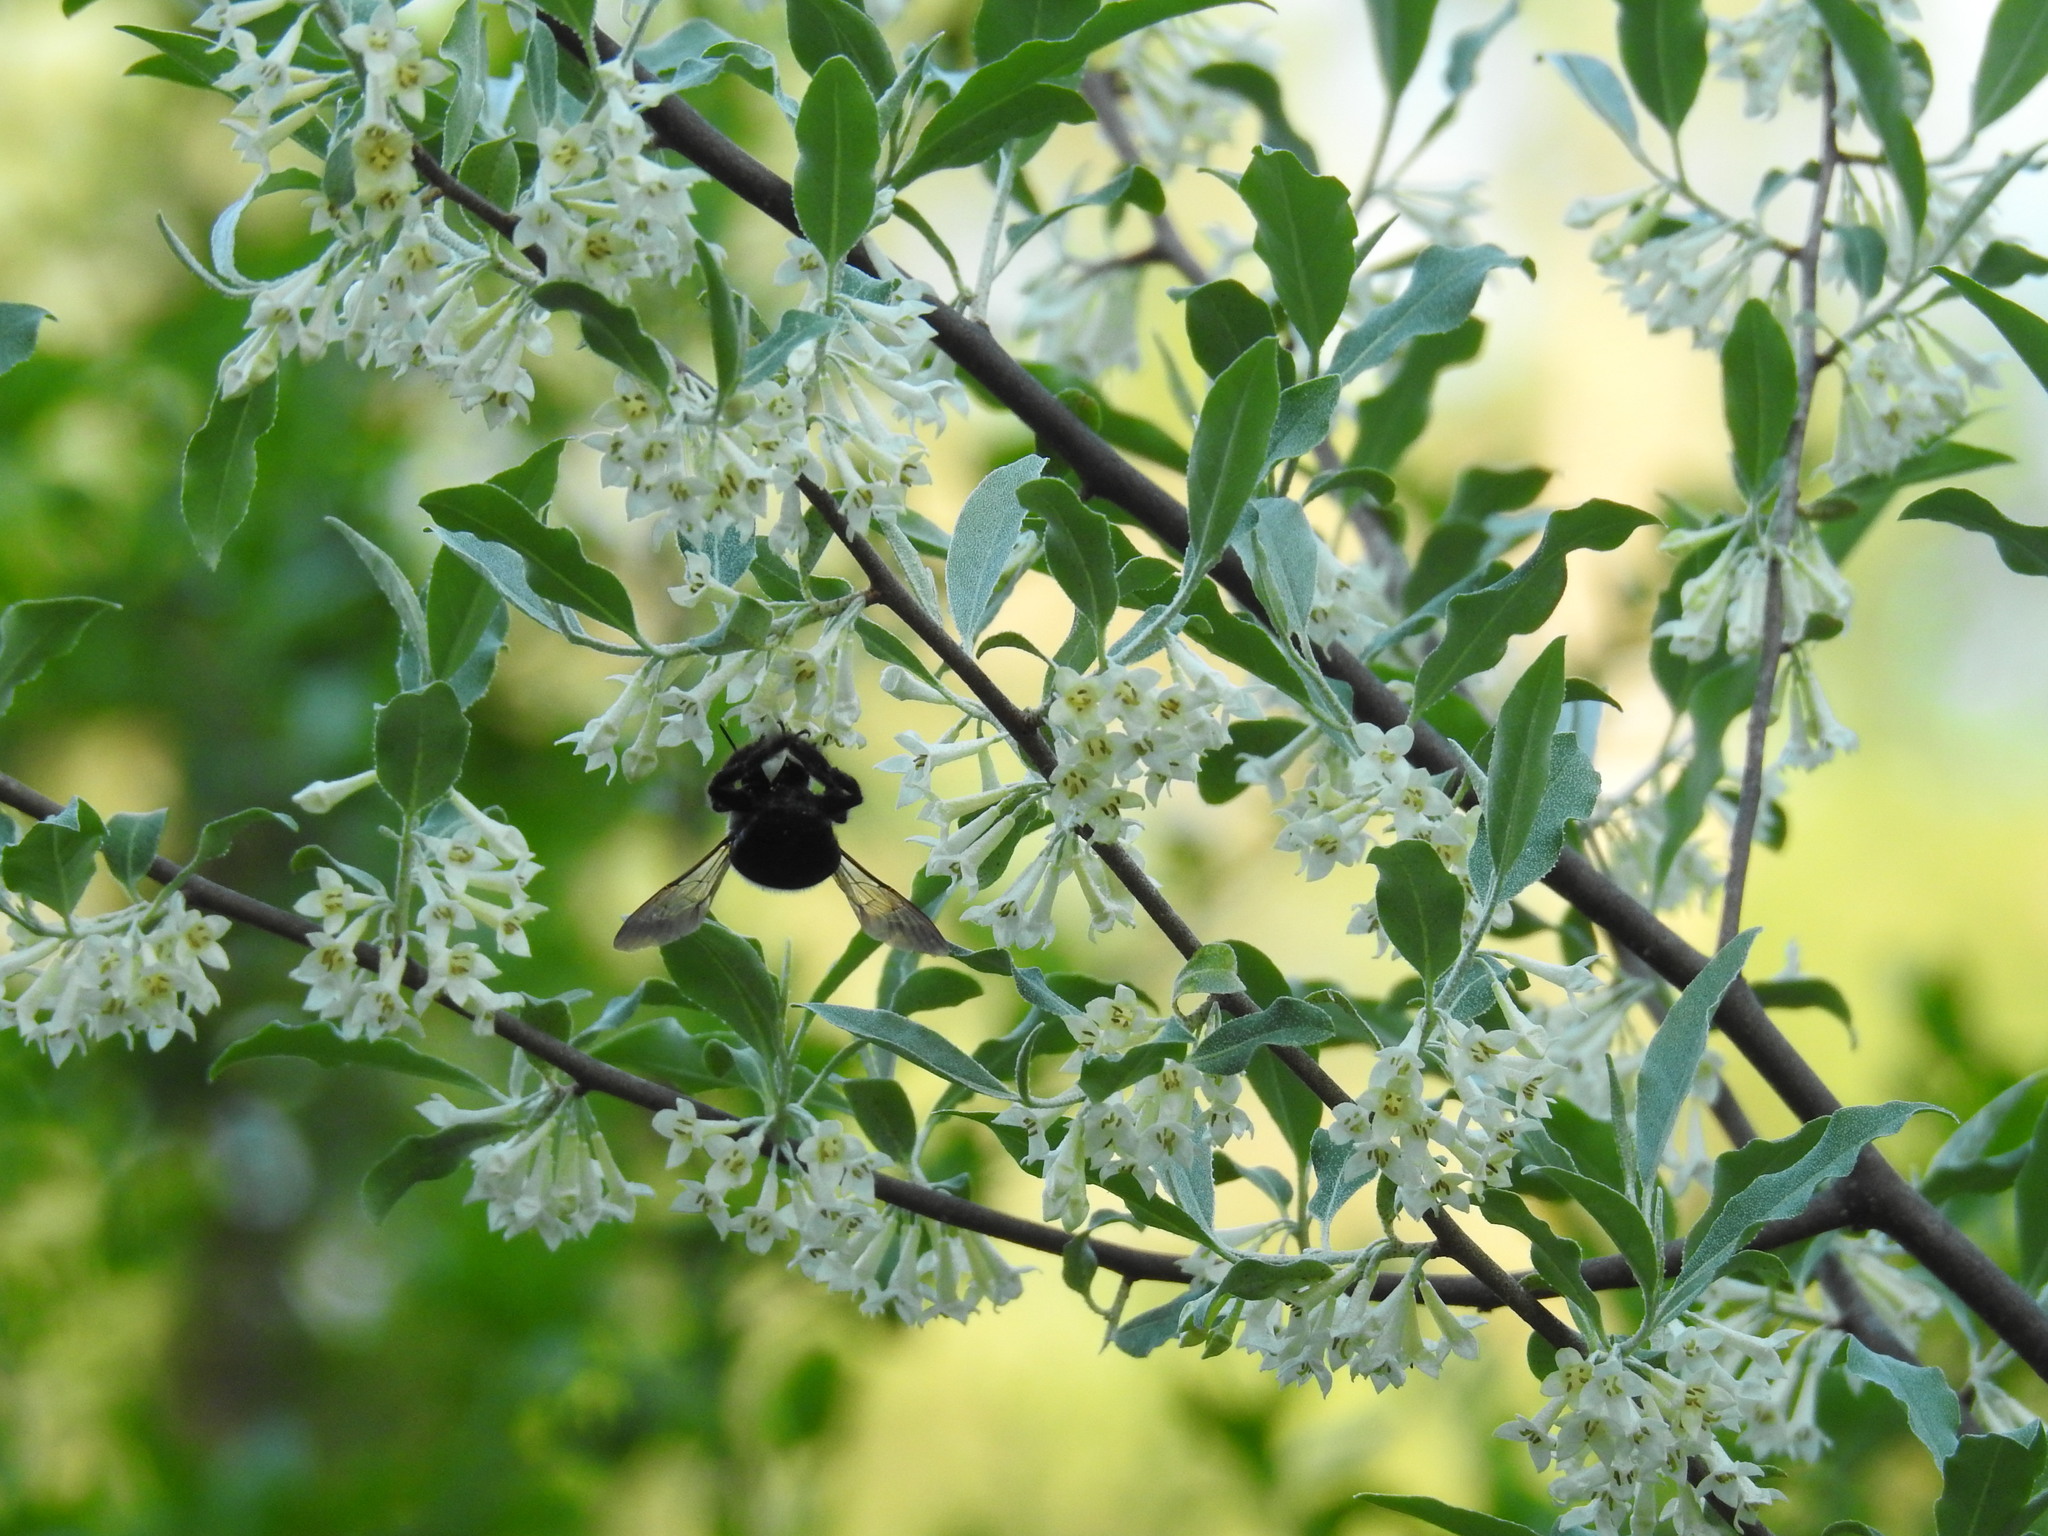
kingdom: Plantae
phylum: Tracheophyta
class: Magnoliopsida
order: Rosales
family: Elaeagnaceae
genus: Elaeagnus
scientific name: Elaeagnus umbellata
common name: Autumn olive
